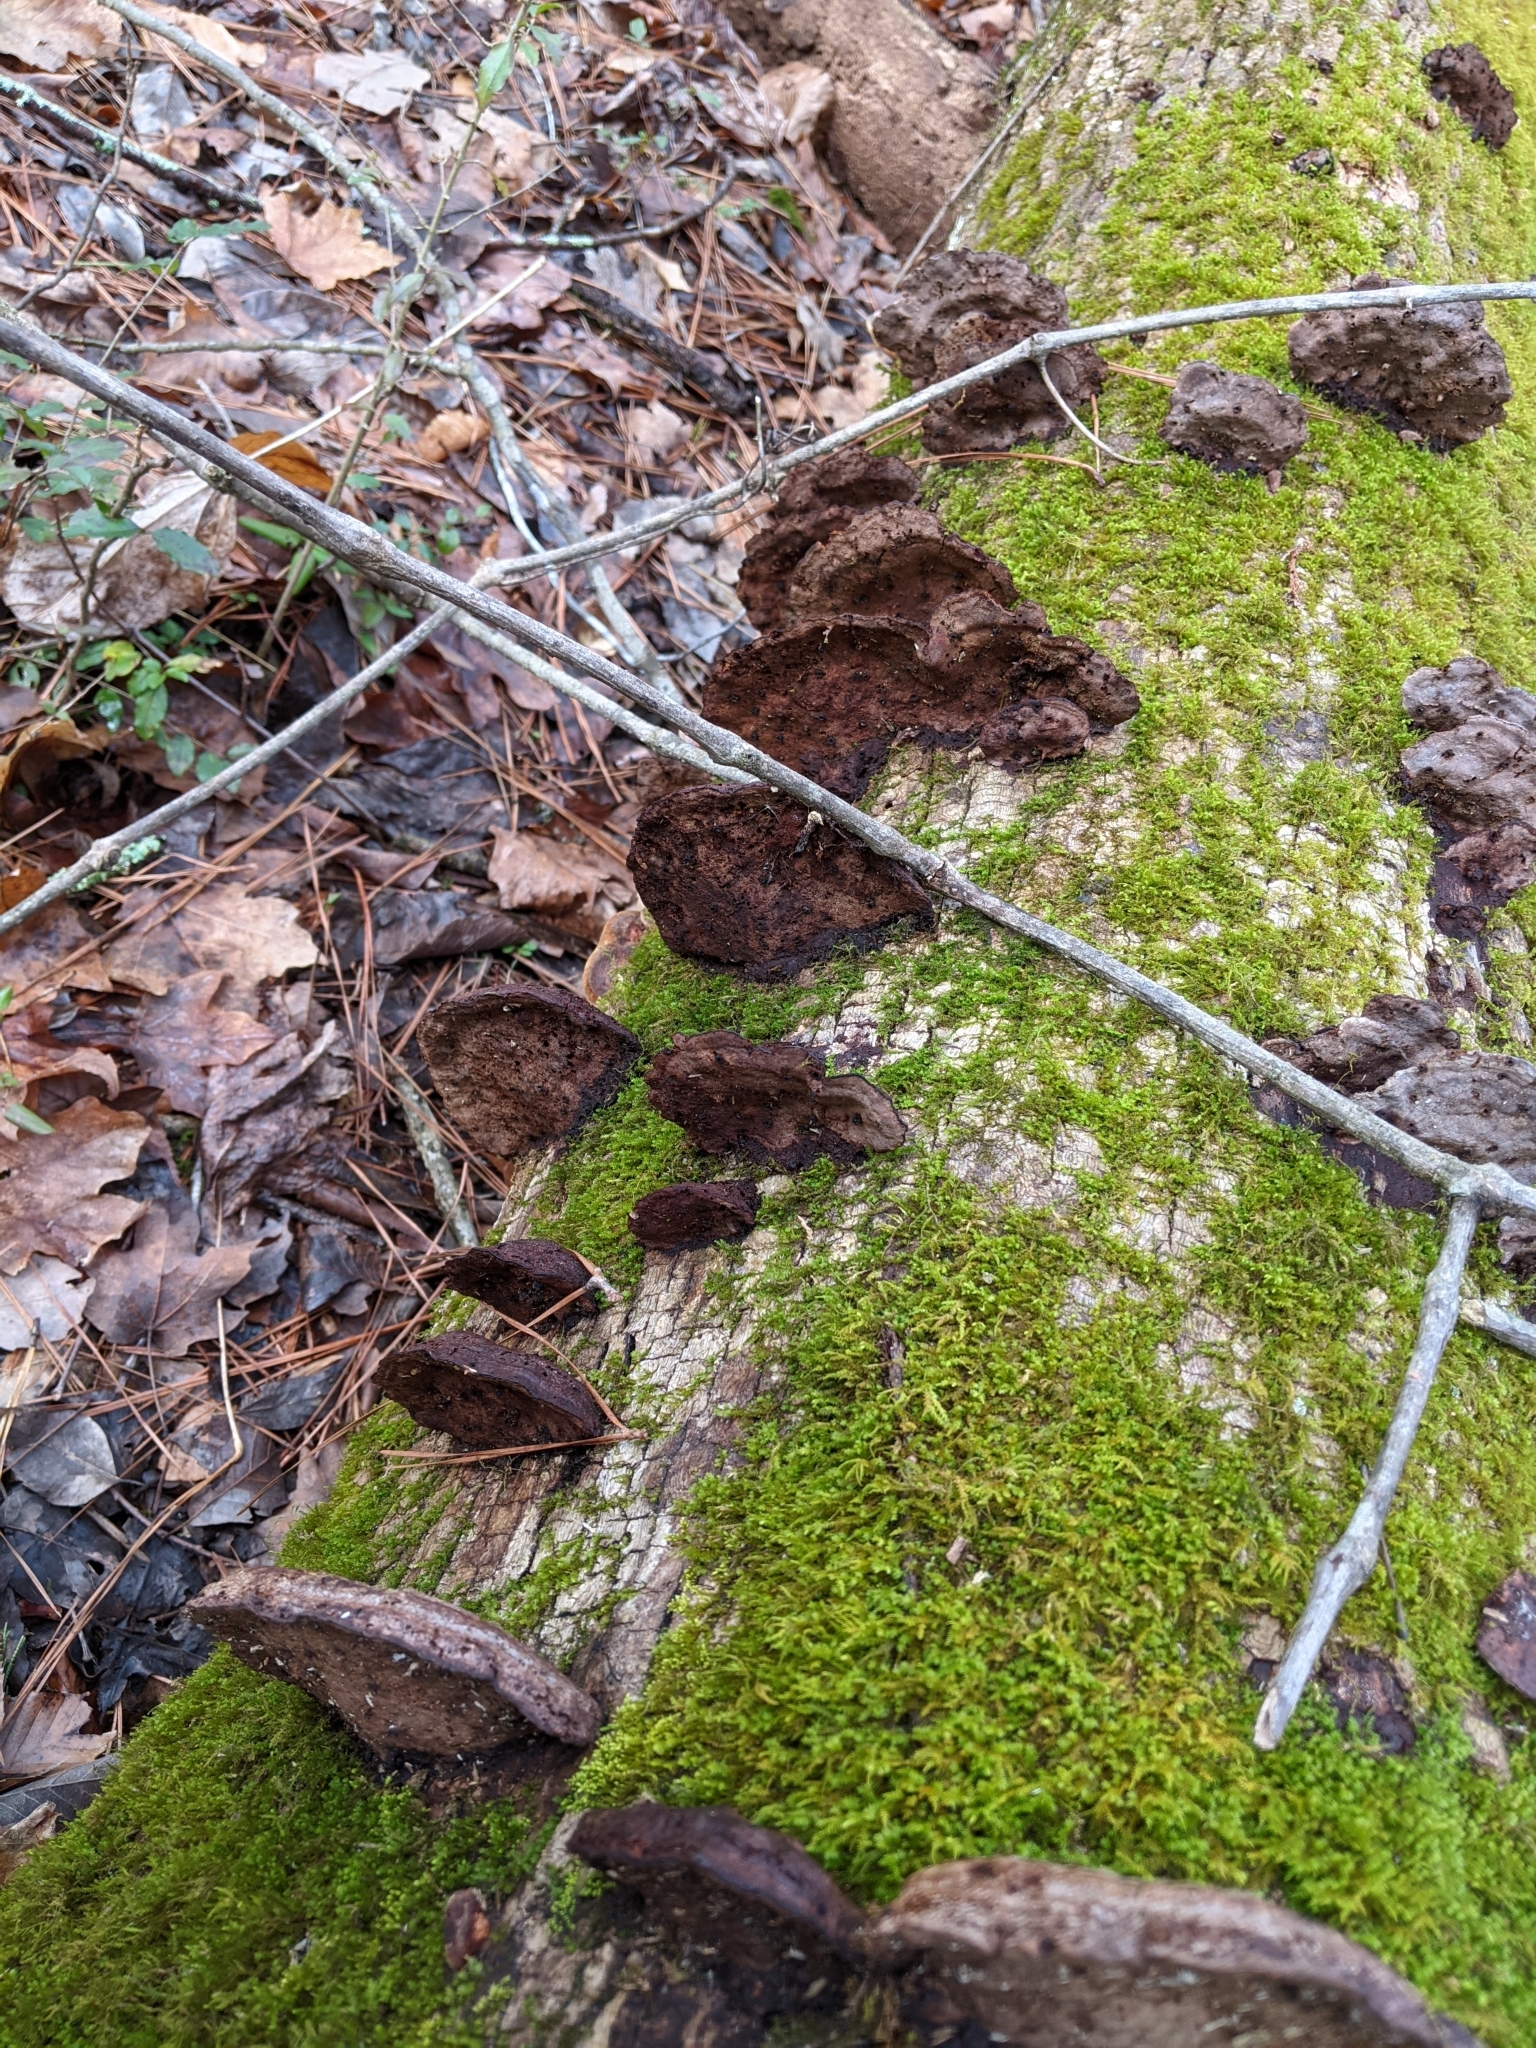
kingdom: Fungi
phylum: Basidiomycota
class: Agaricomycetes
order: Polyporales
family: Cerrenaceae
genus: Cerrena
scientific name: Cerrena hydnoides
